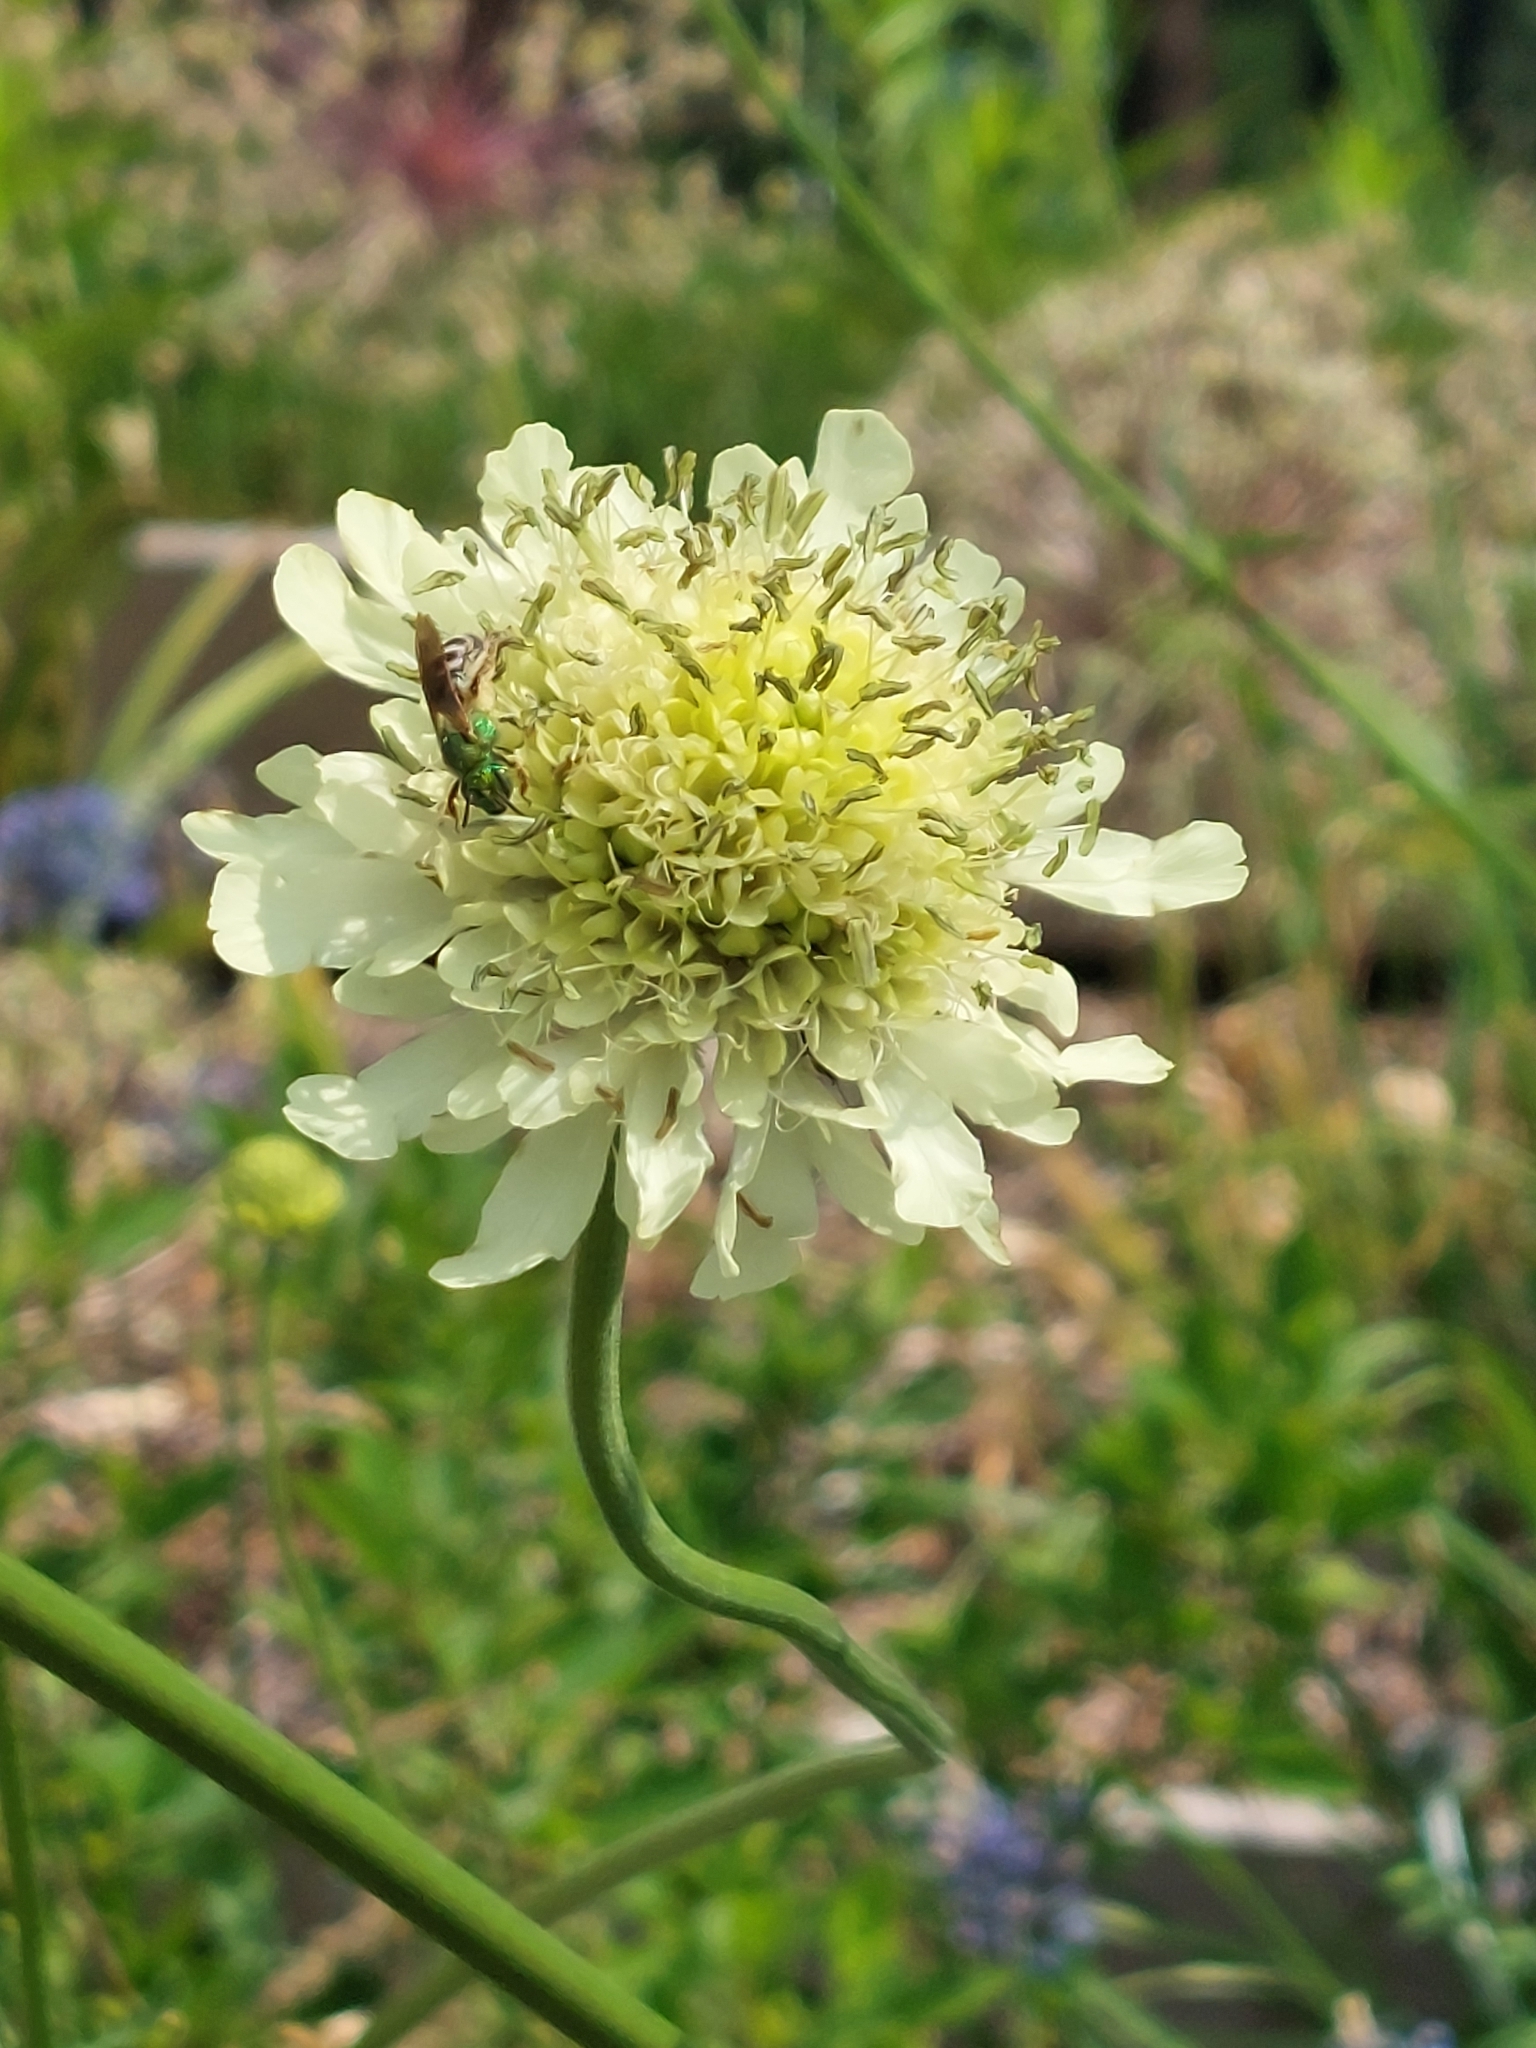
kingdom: Animalia
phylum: Arthropoda
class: Insecta
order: Hymenoptera
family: Halictidae
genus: Agapostemon
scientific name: Agapostemon virescens
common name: Bicolored striped sweat bee
